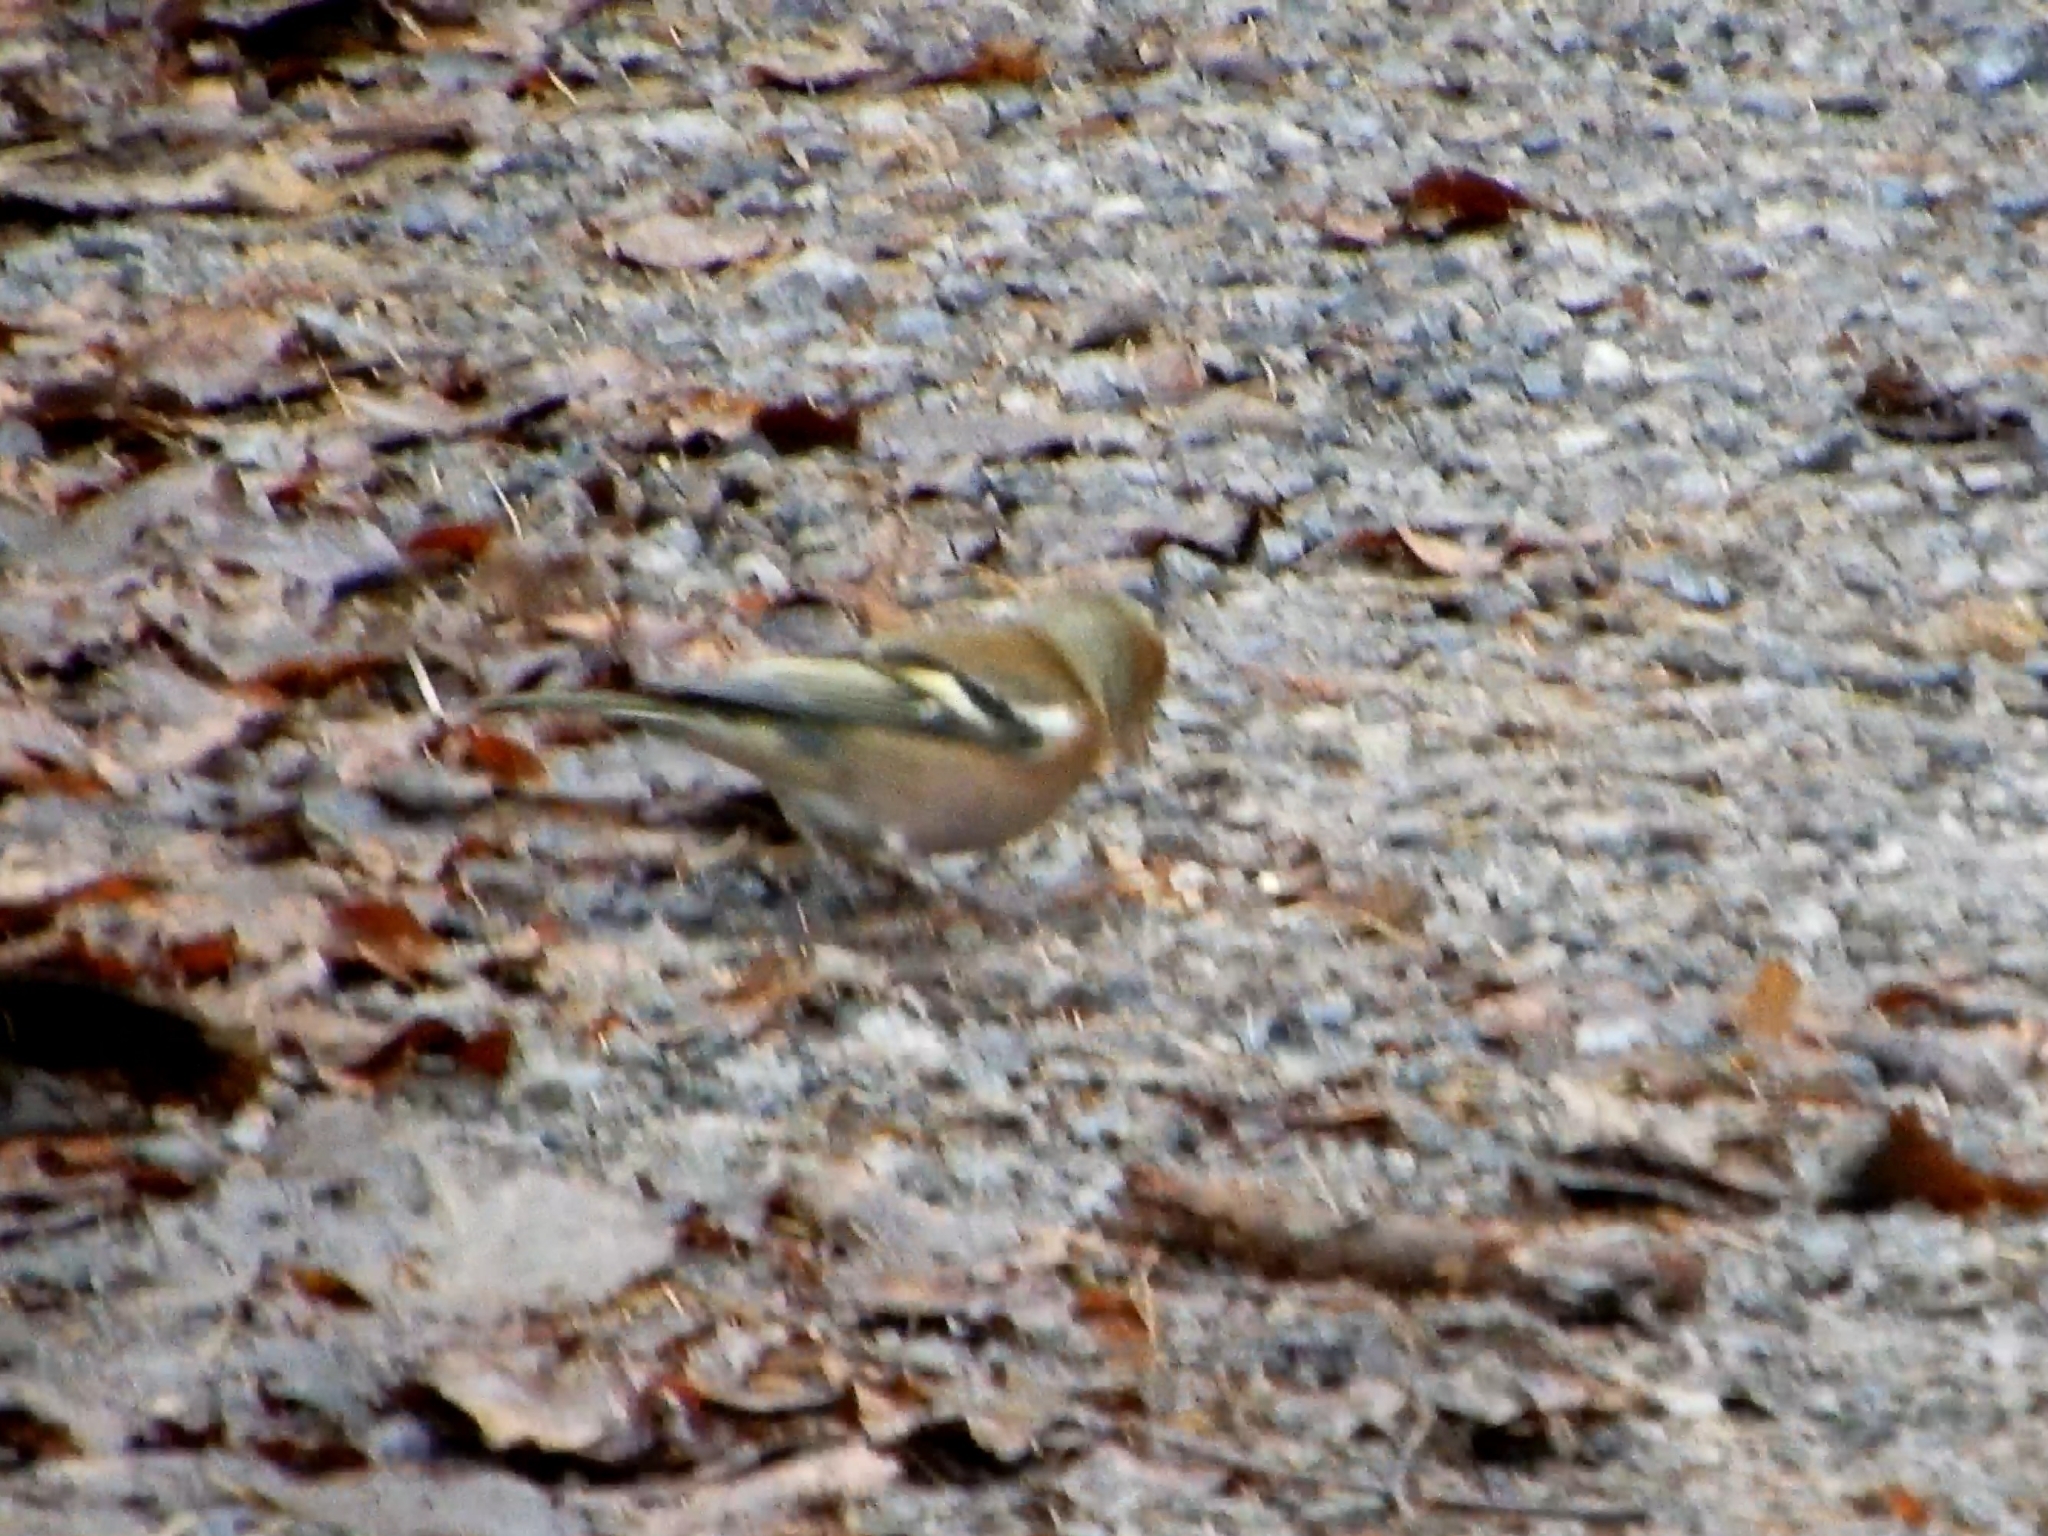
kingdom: Animalia
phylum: Chordata
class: Aves
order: Passeriformes
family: Fringillidae
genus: Fringilla
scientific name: Fringilla coelebs
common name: Common chaffinch
